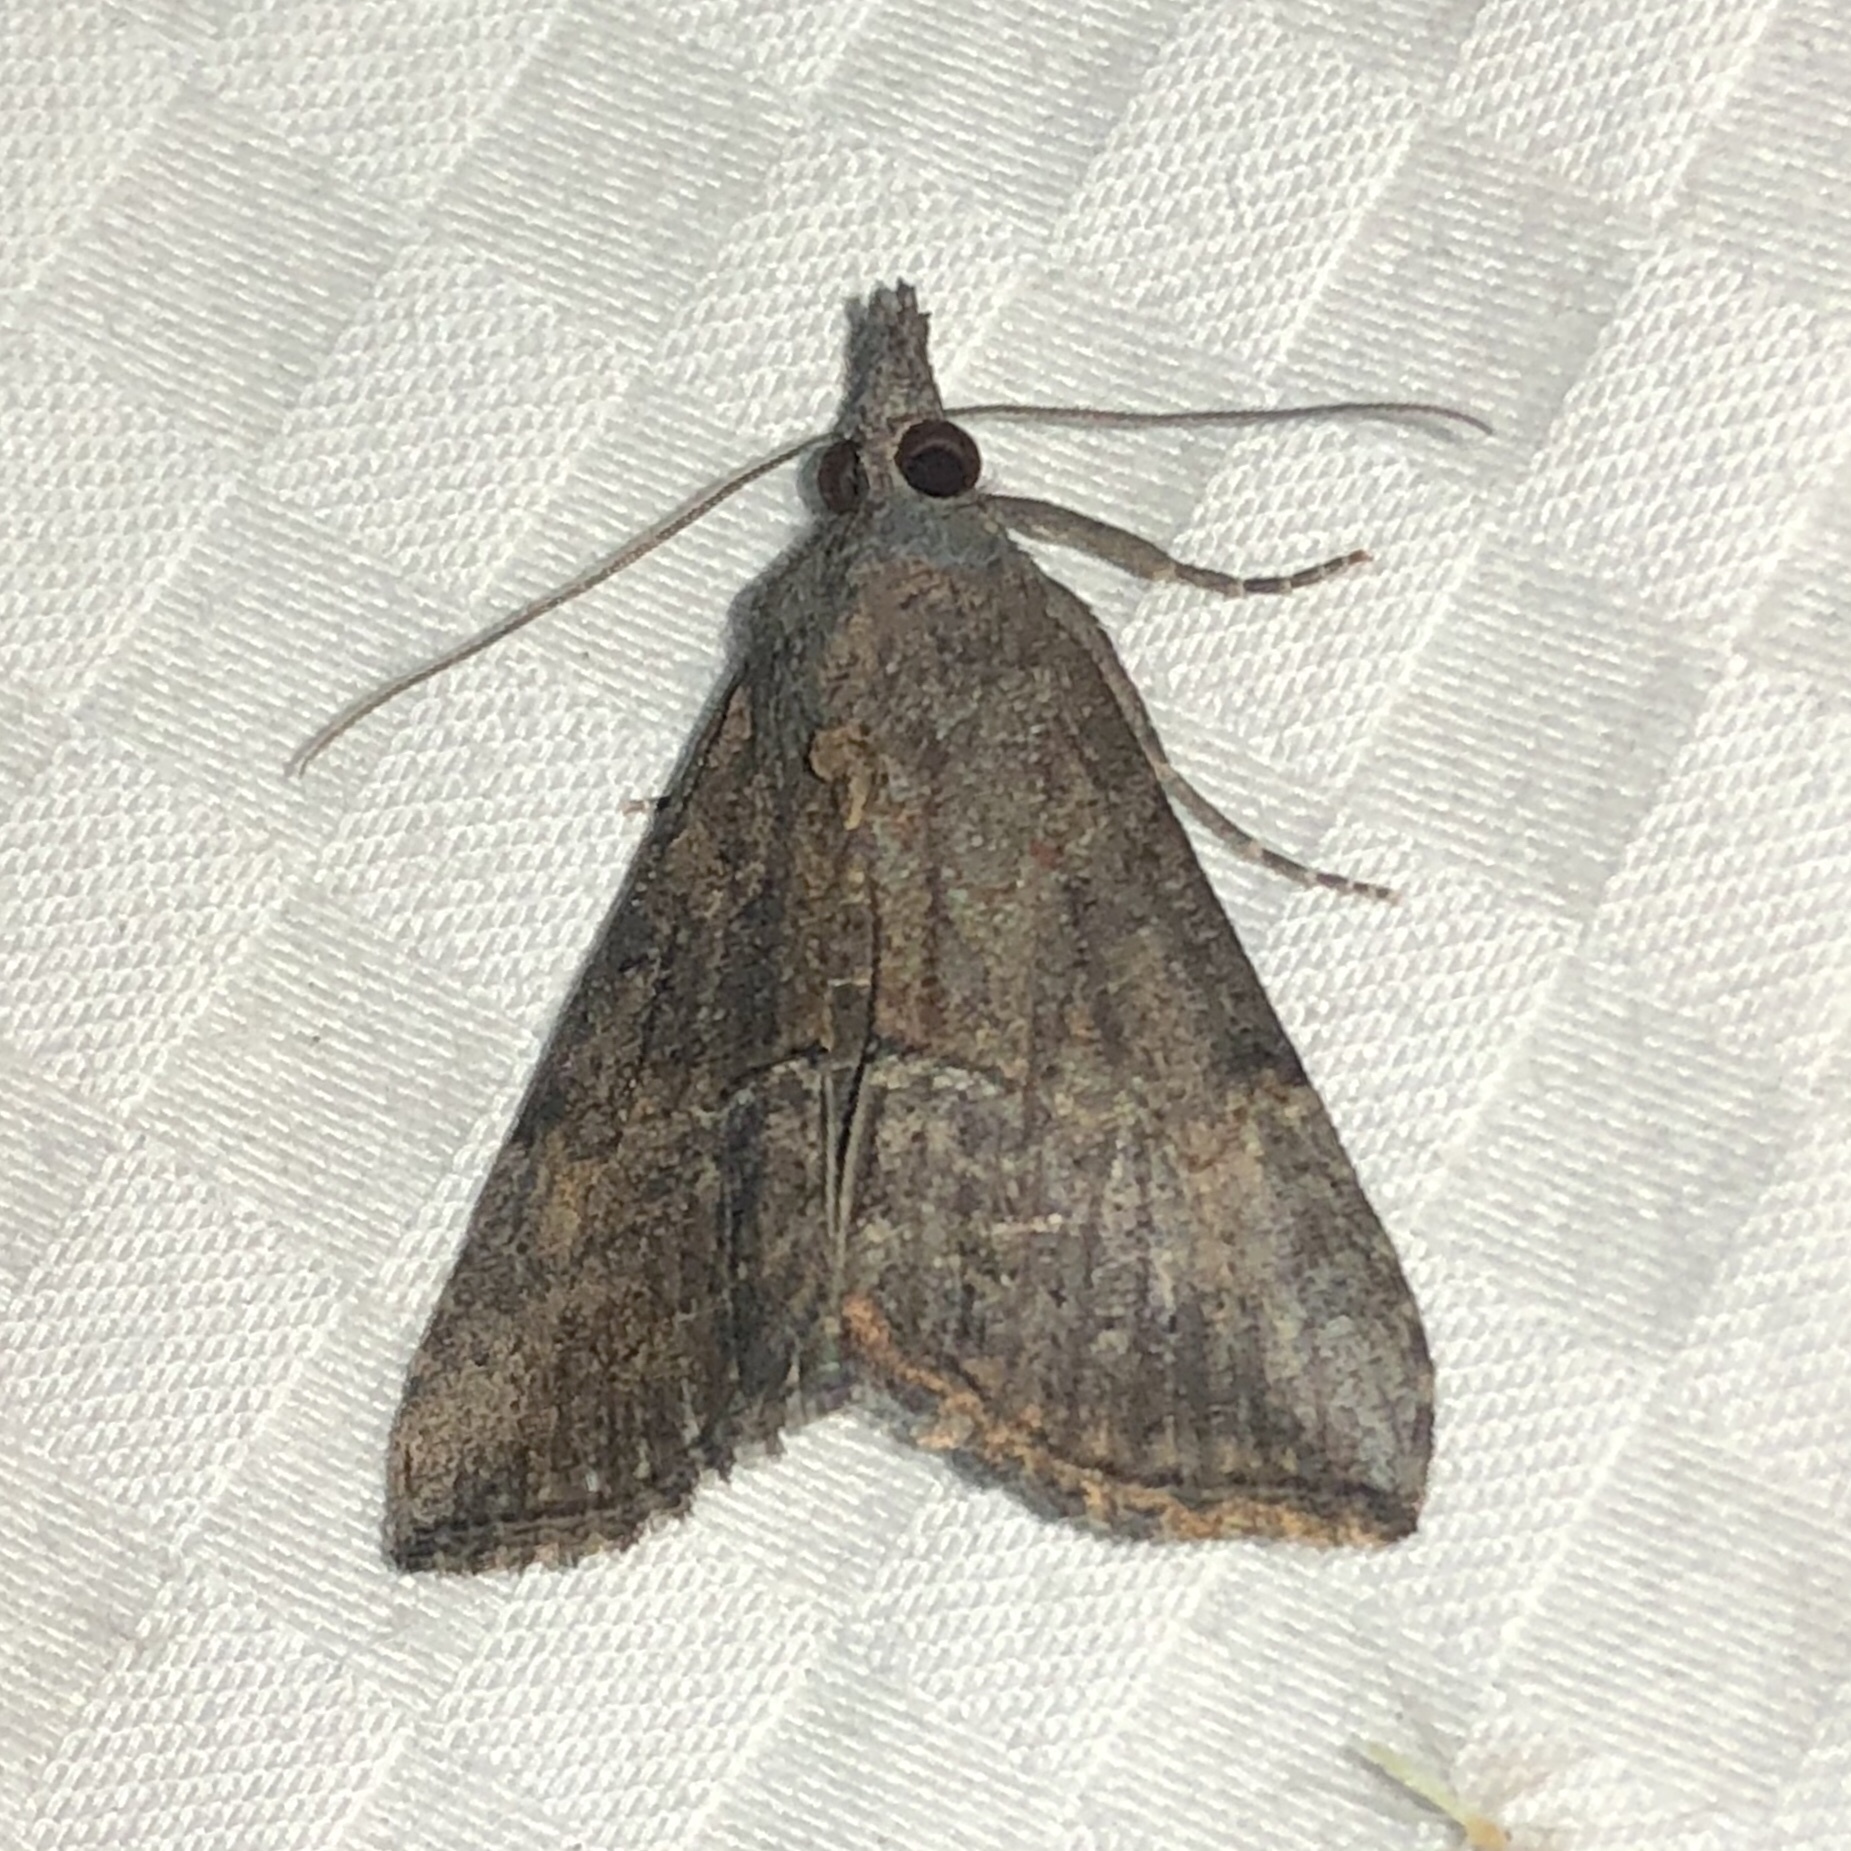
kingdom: Animalia
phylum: Arthropoda
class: Insecta
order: Lepidoptera
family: Erebidae
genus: Hypena
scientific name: Hypena scabra
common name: Green cloverworm
